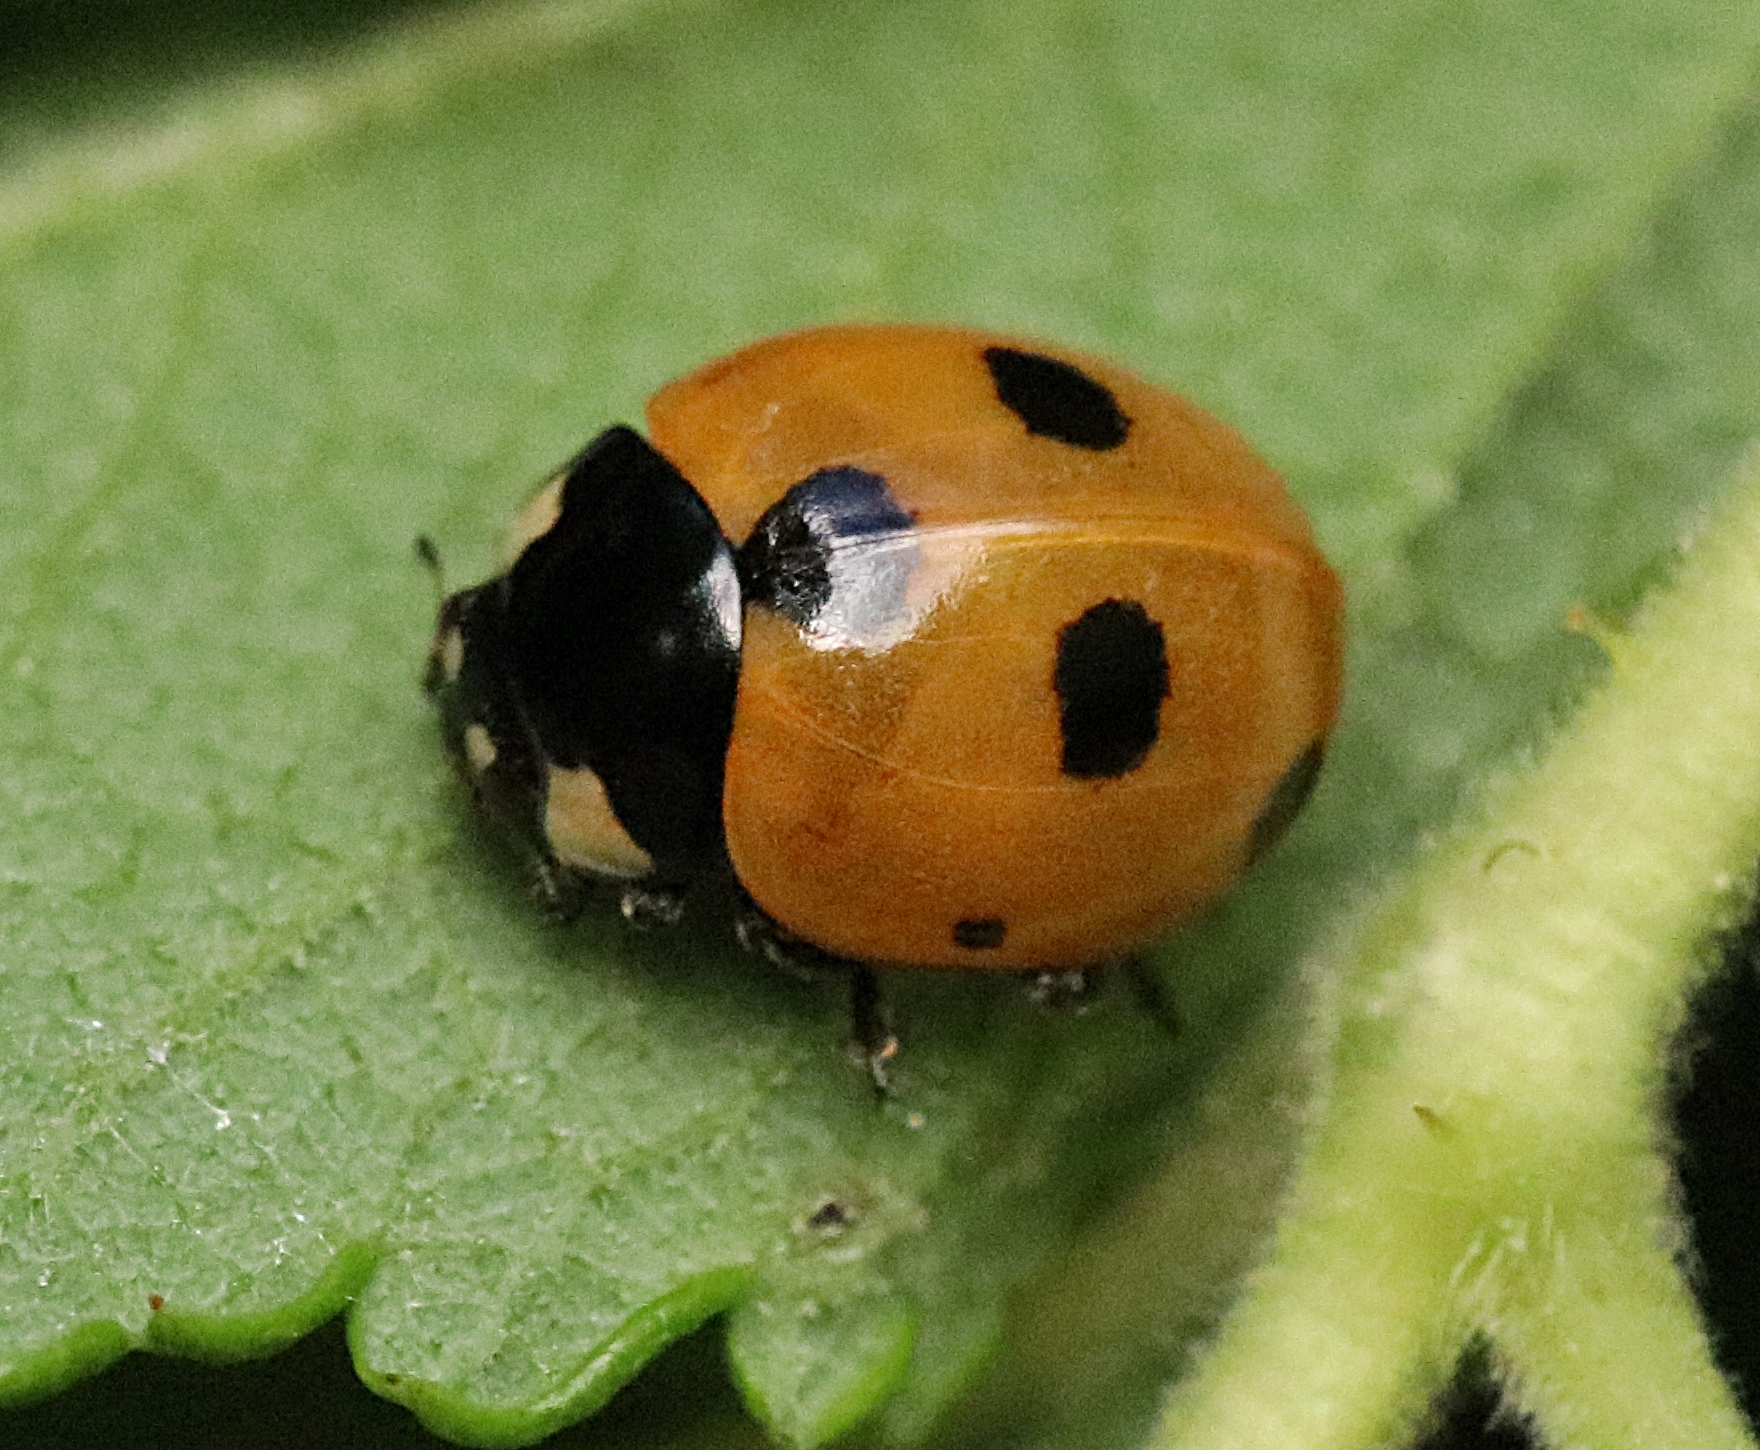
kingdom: Animalia
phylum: Arthropoda
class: Insecta
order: Coleoptera
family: Coccinellidae
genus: Coccinella
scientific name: Coccinella magnifica
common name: Scarce 7-spot ladybird
